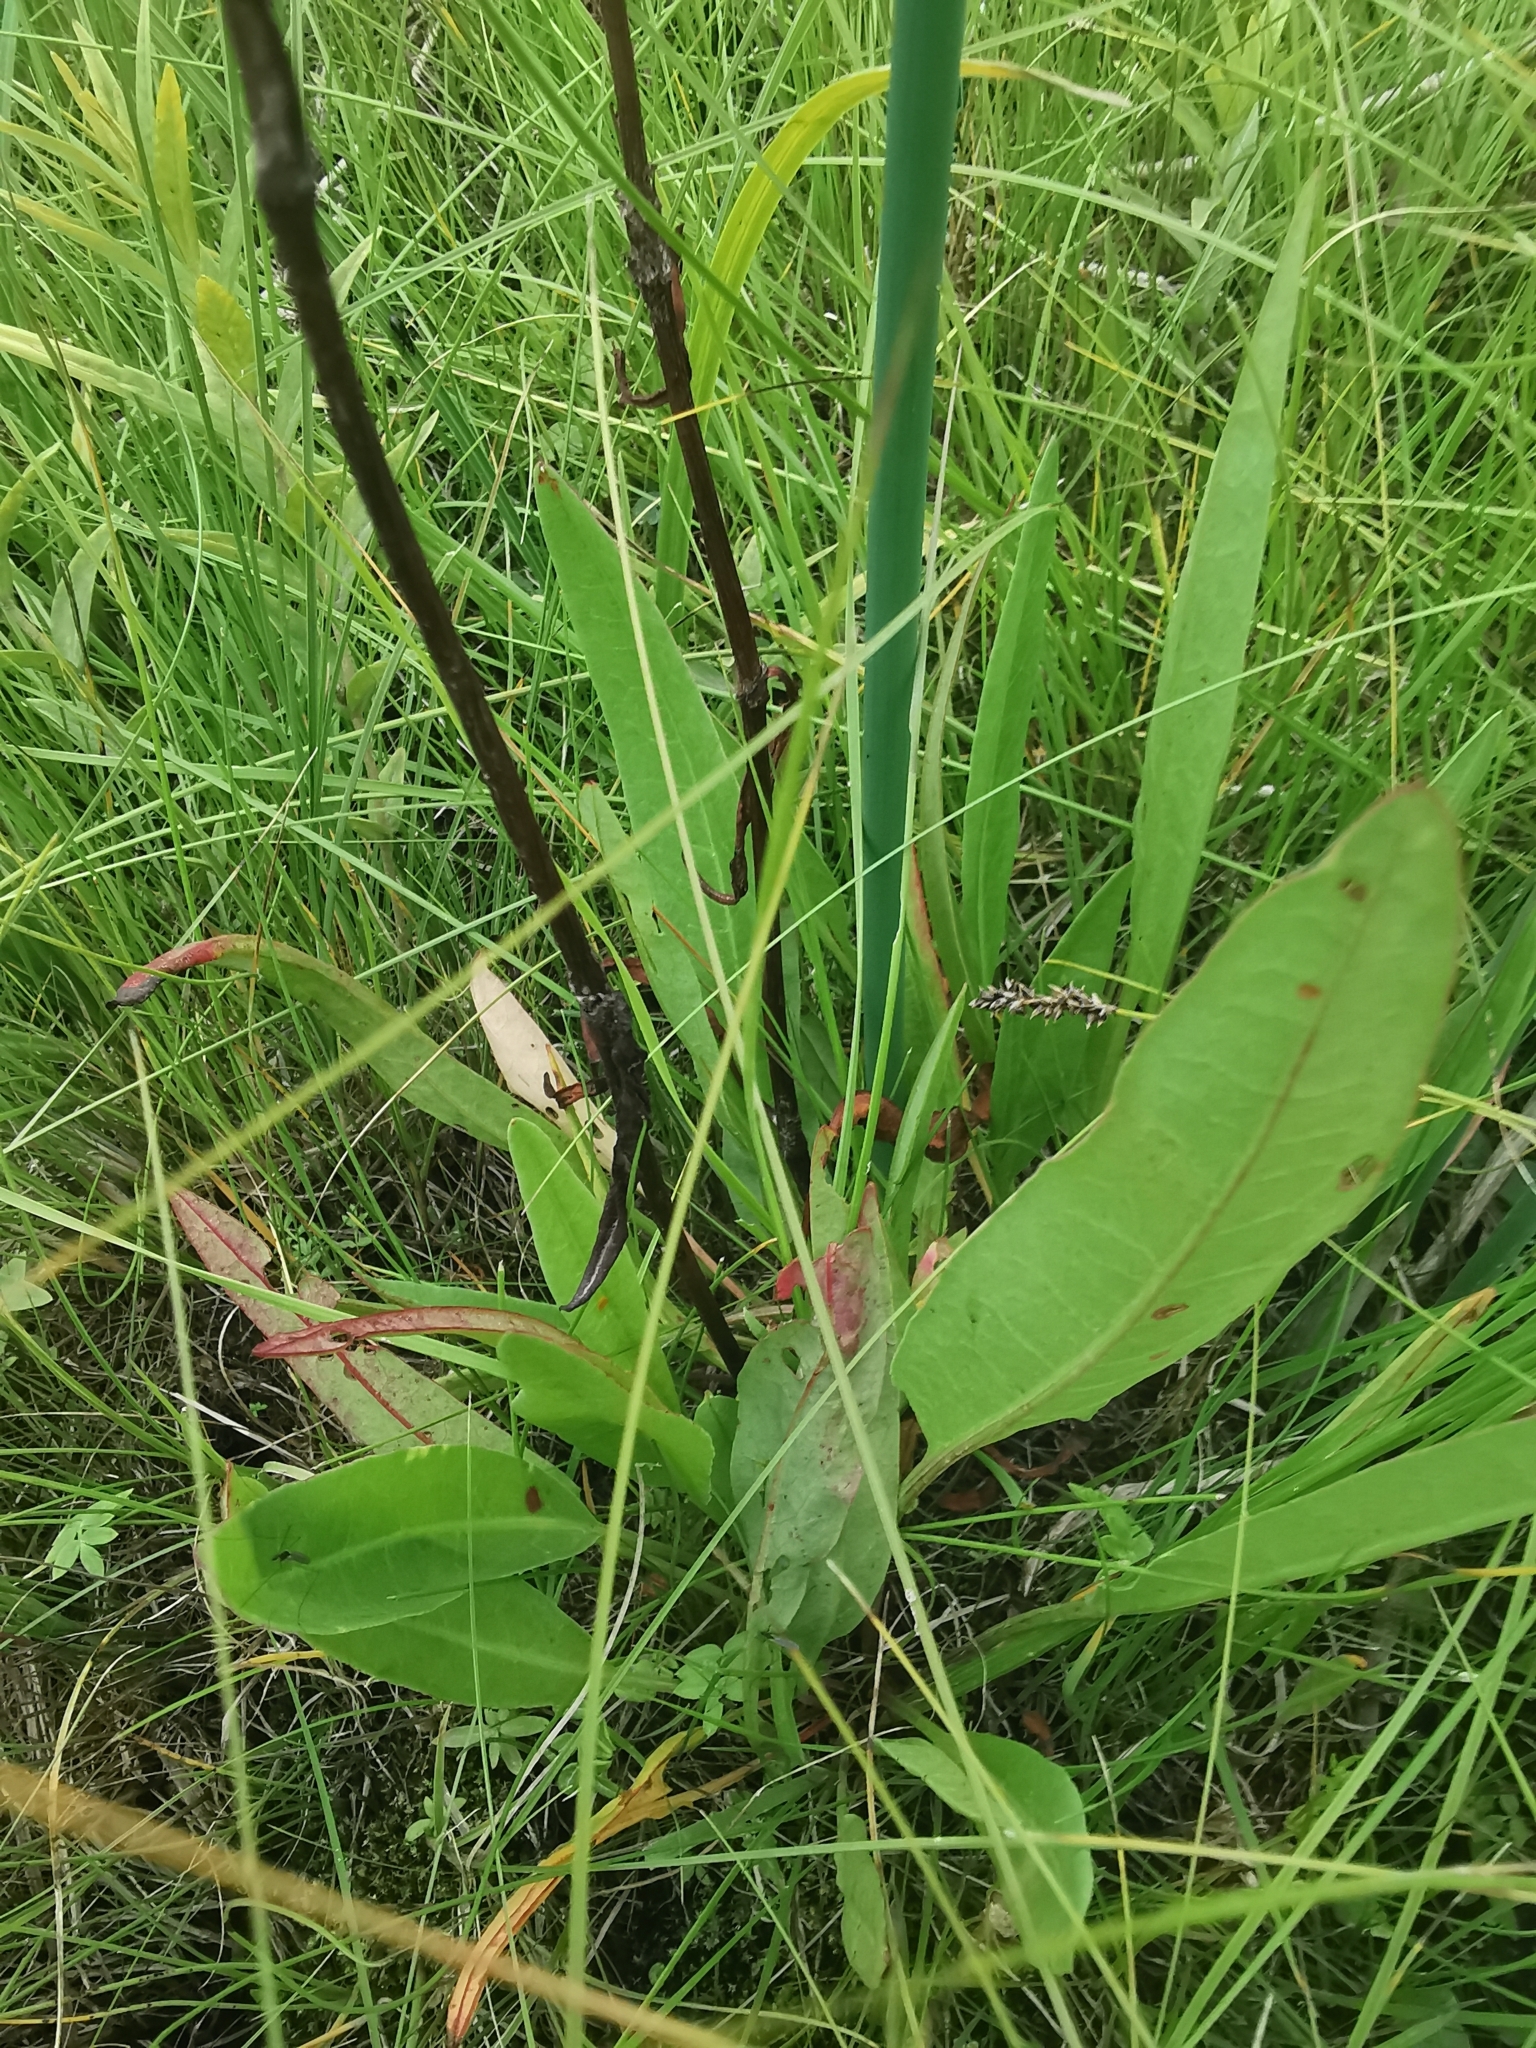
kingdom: Plantae
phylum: Tracheophyta
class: Magnoliopsida
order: Caryophyllales
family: Polygonaceae
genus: Rumex
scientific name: Rumex arcticus
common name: Arctic dock
